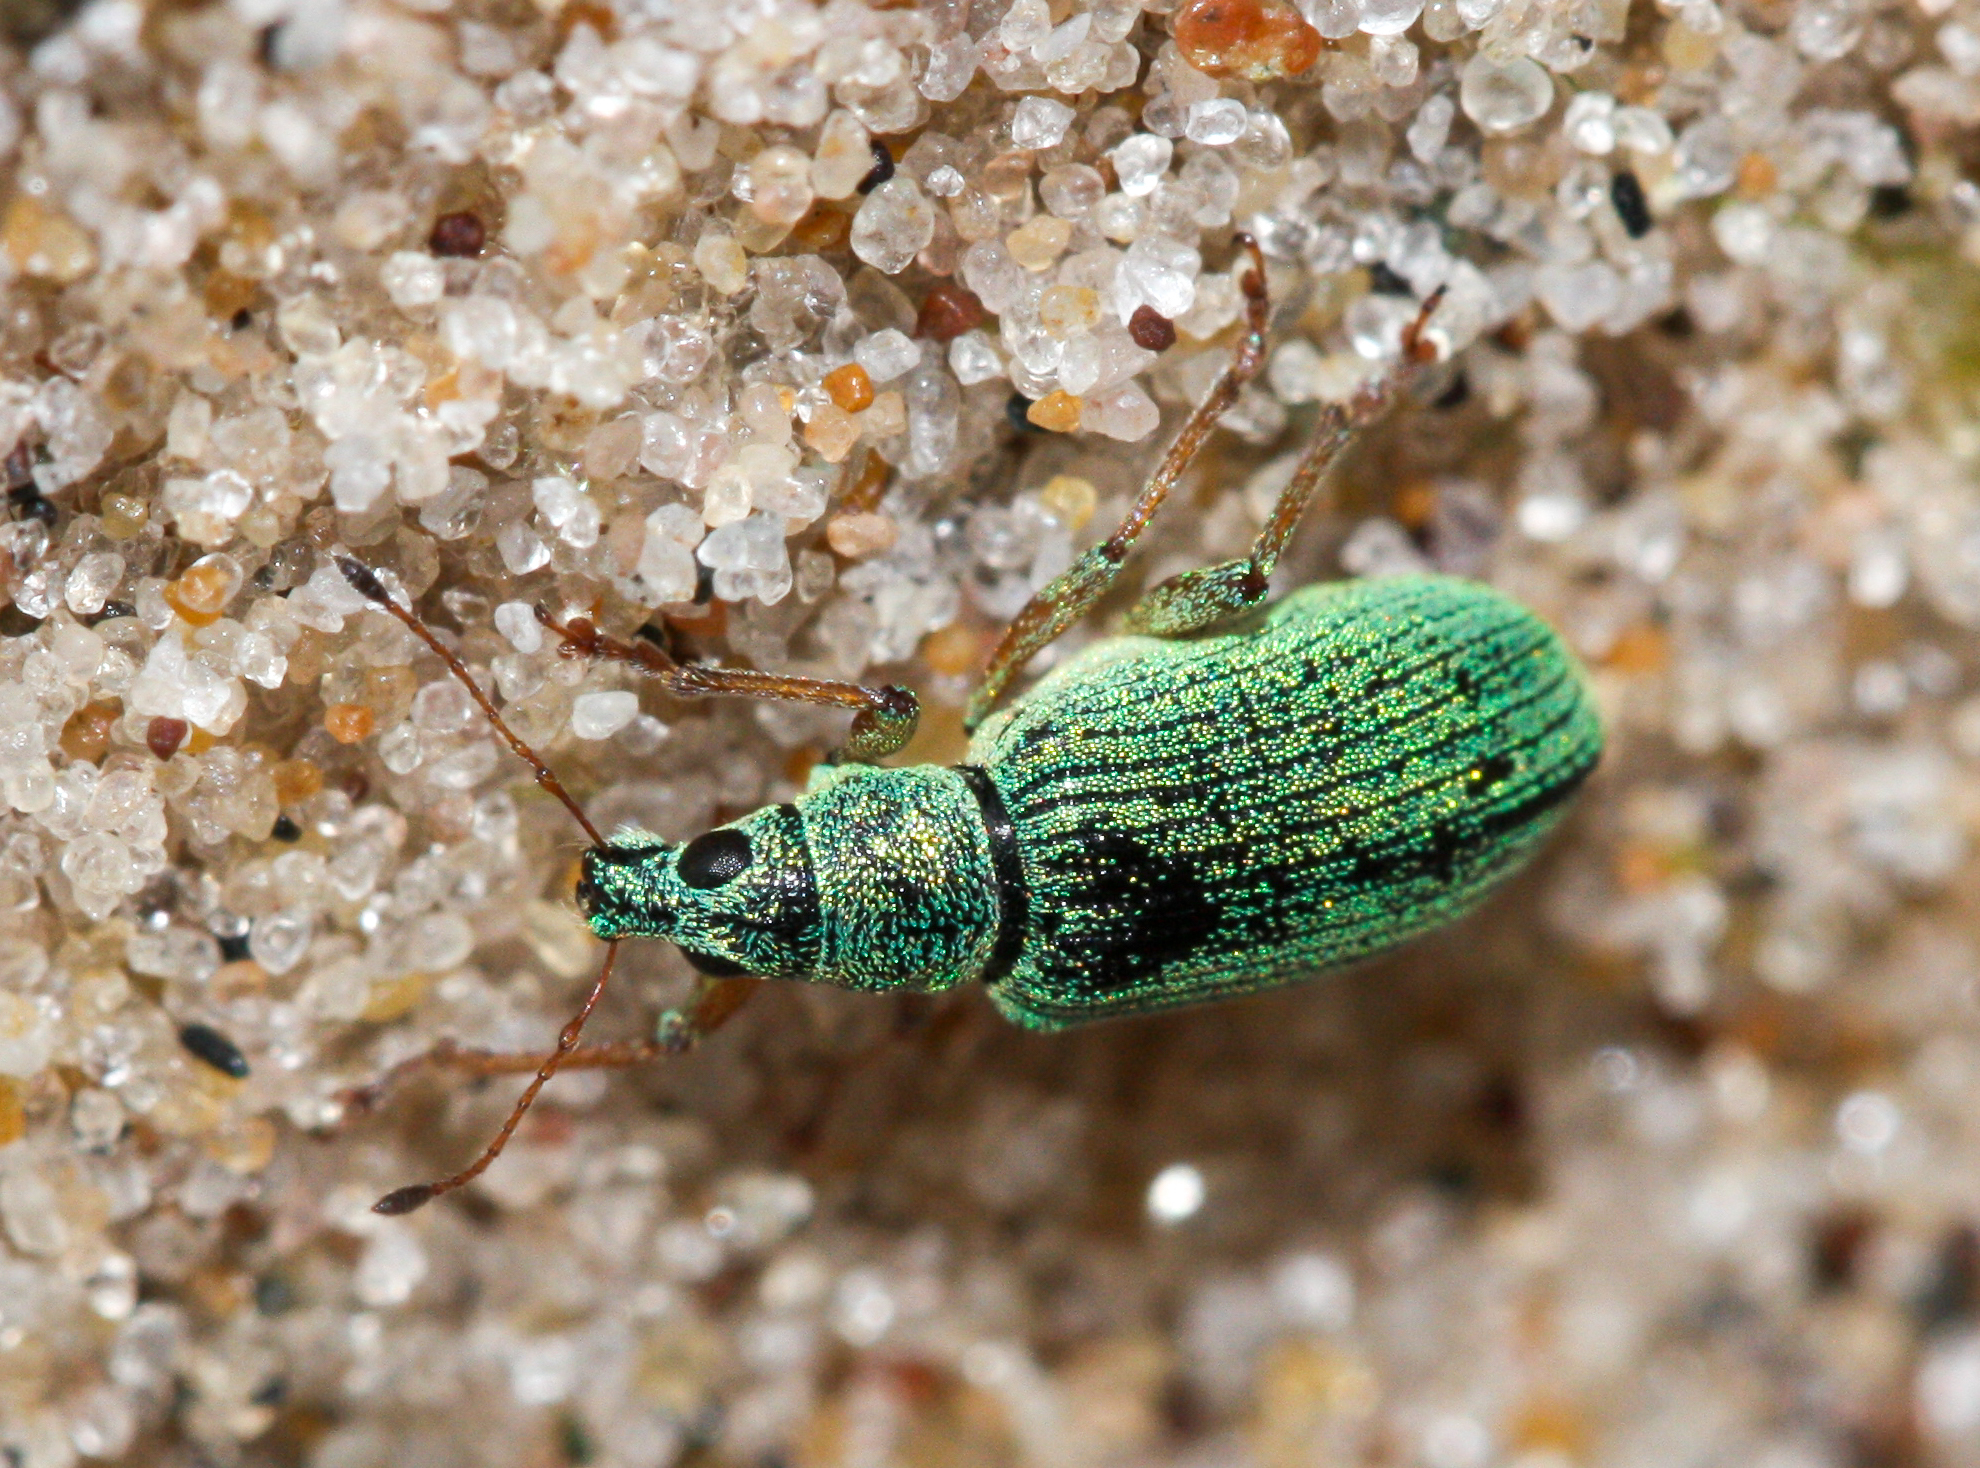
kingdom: Animalia
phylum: Arthropoda
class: Insecta
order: Coleoptera
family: Curculionidae
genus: Polydrusus
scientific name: Polydrusus formosus
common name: Weevil
